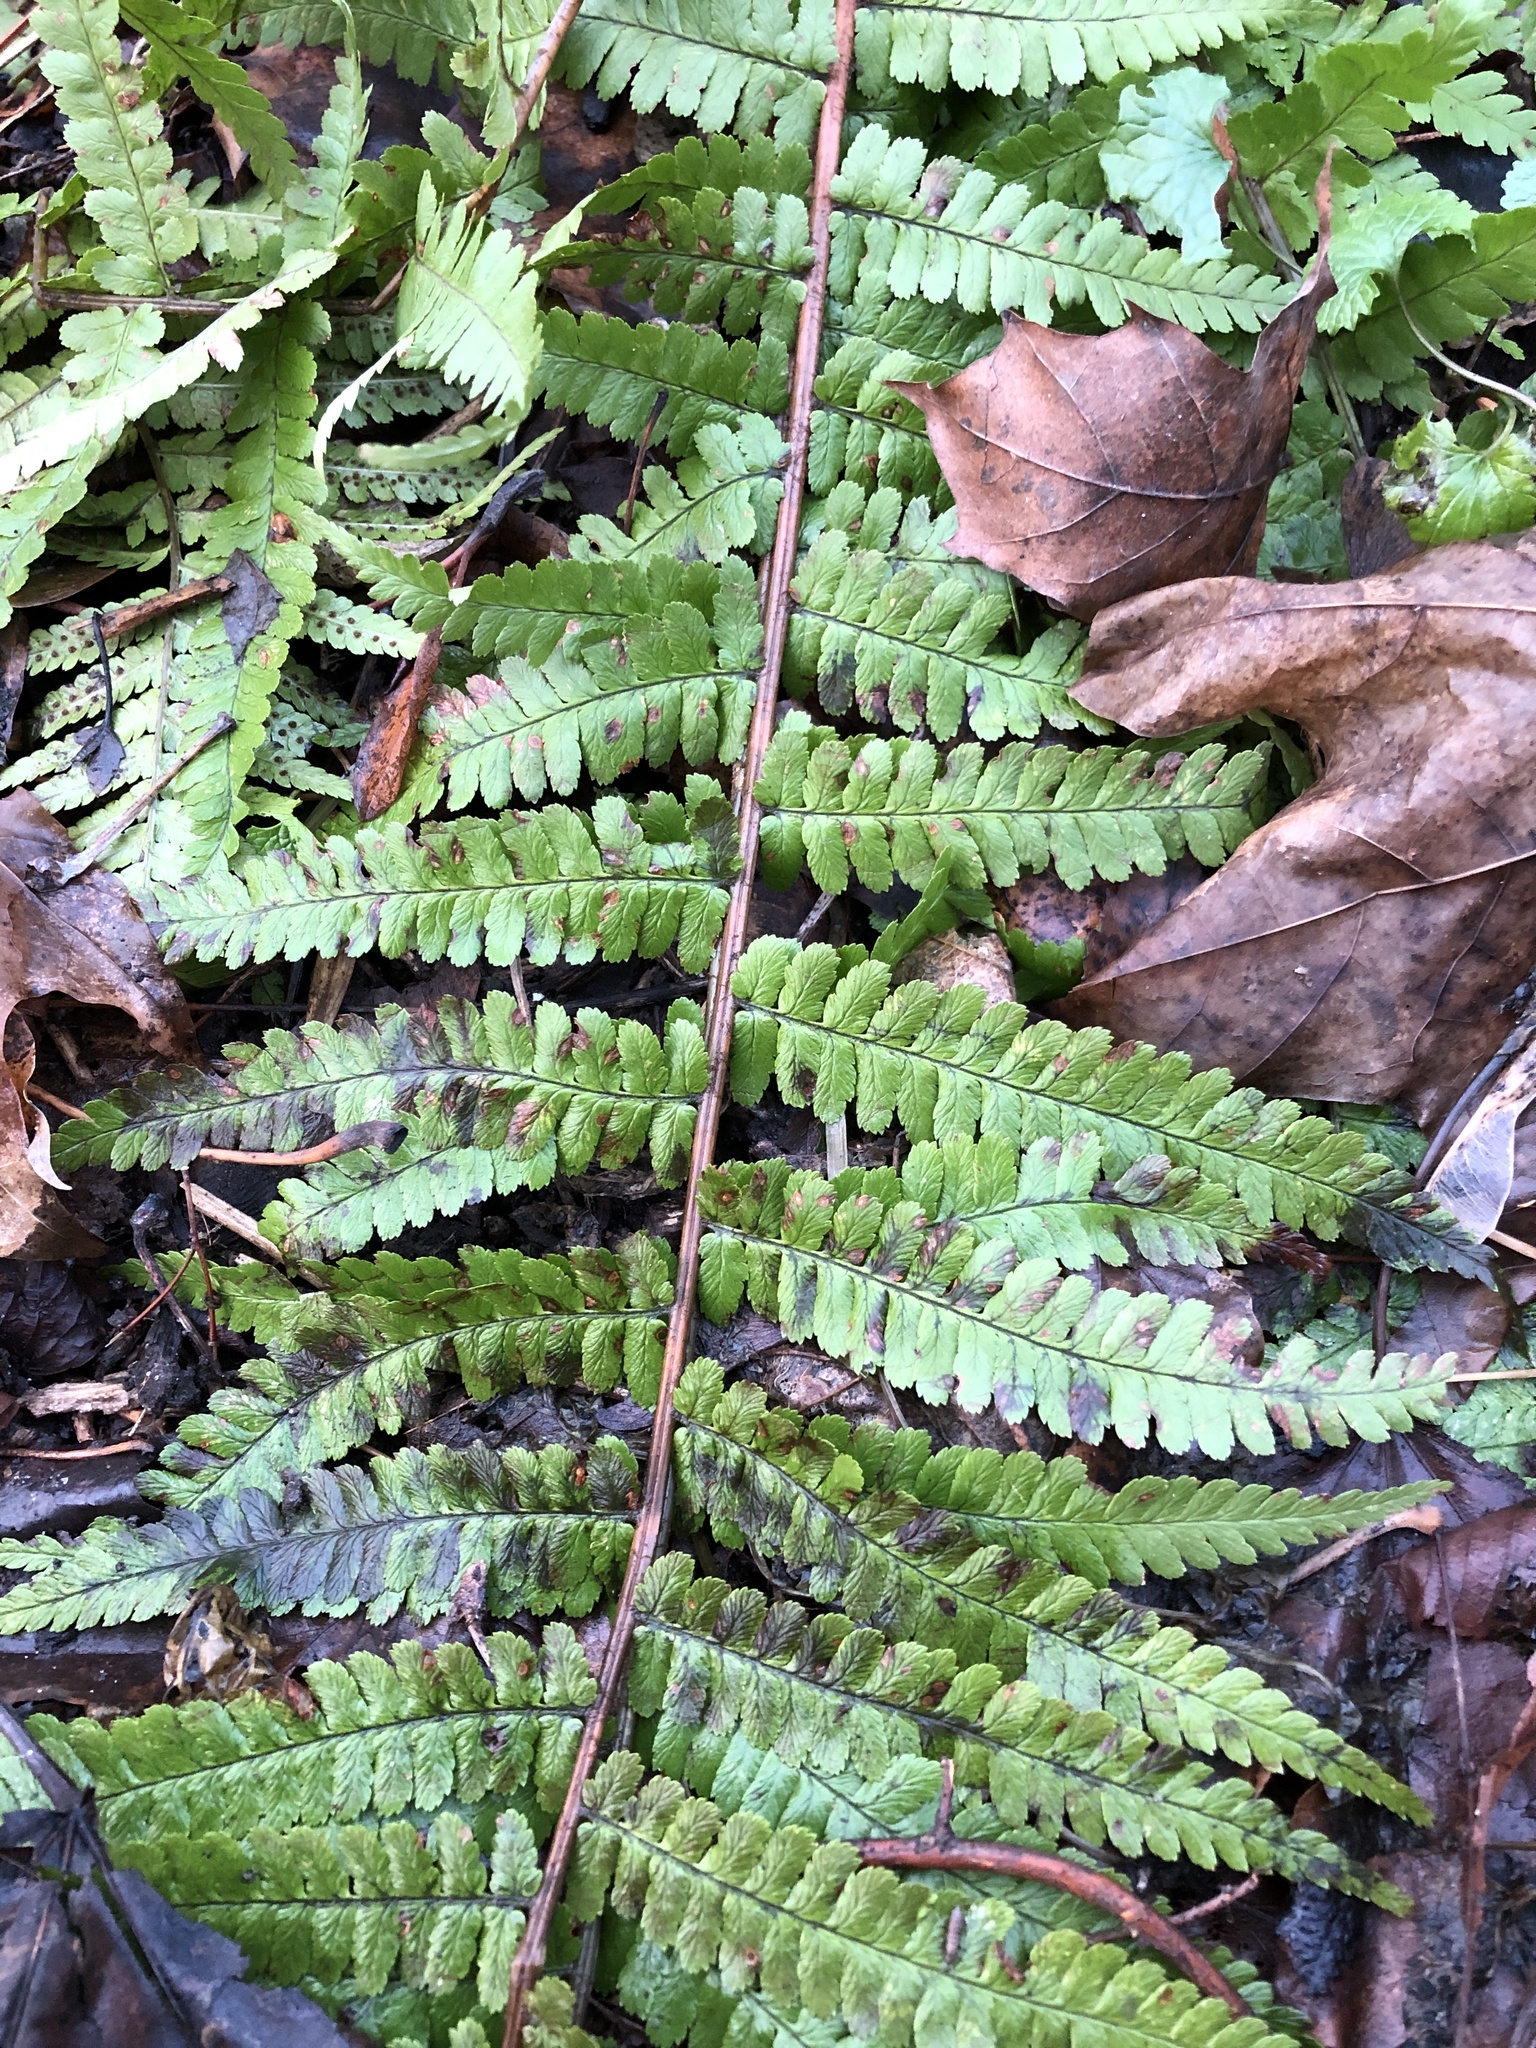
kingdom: Plantae
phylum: Tracheophyta
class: Polypodiopsida
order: Polypodiales
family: Dryopteridaceae
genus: Dryopteris
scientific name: Dryopteris filix-mas
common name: Male fern
